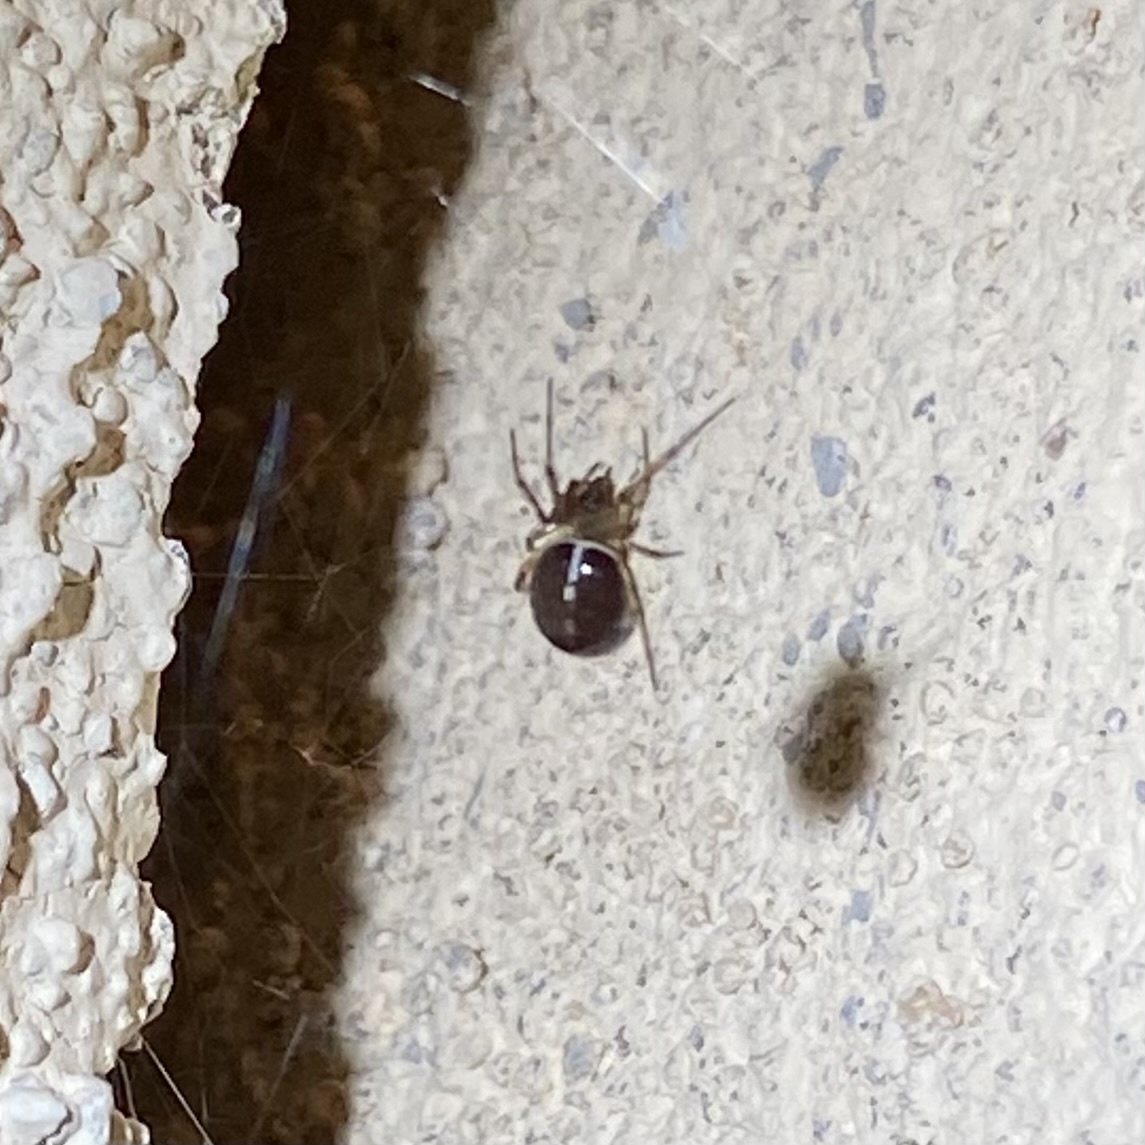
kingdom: Animalia
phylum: Arthropoda
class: Arachnida
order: Araneae
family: Theridiidae
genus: Steatoda
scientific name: Steatoda
